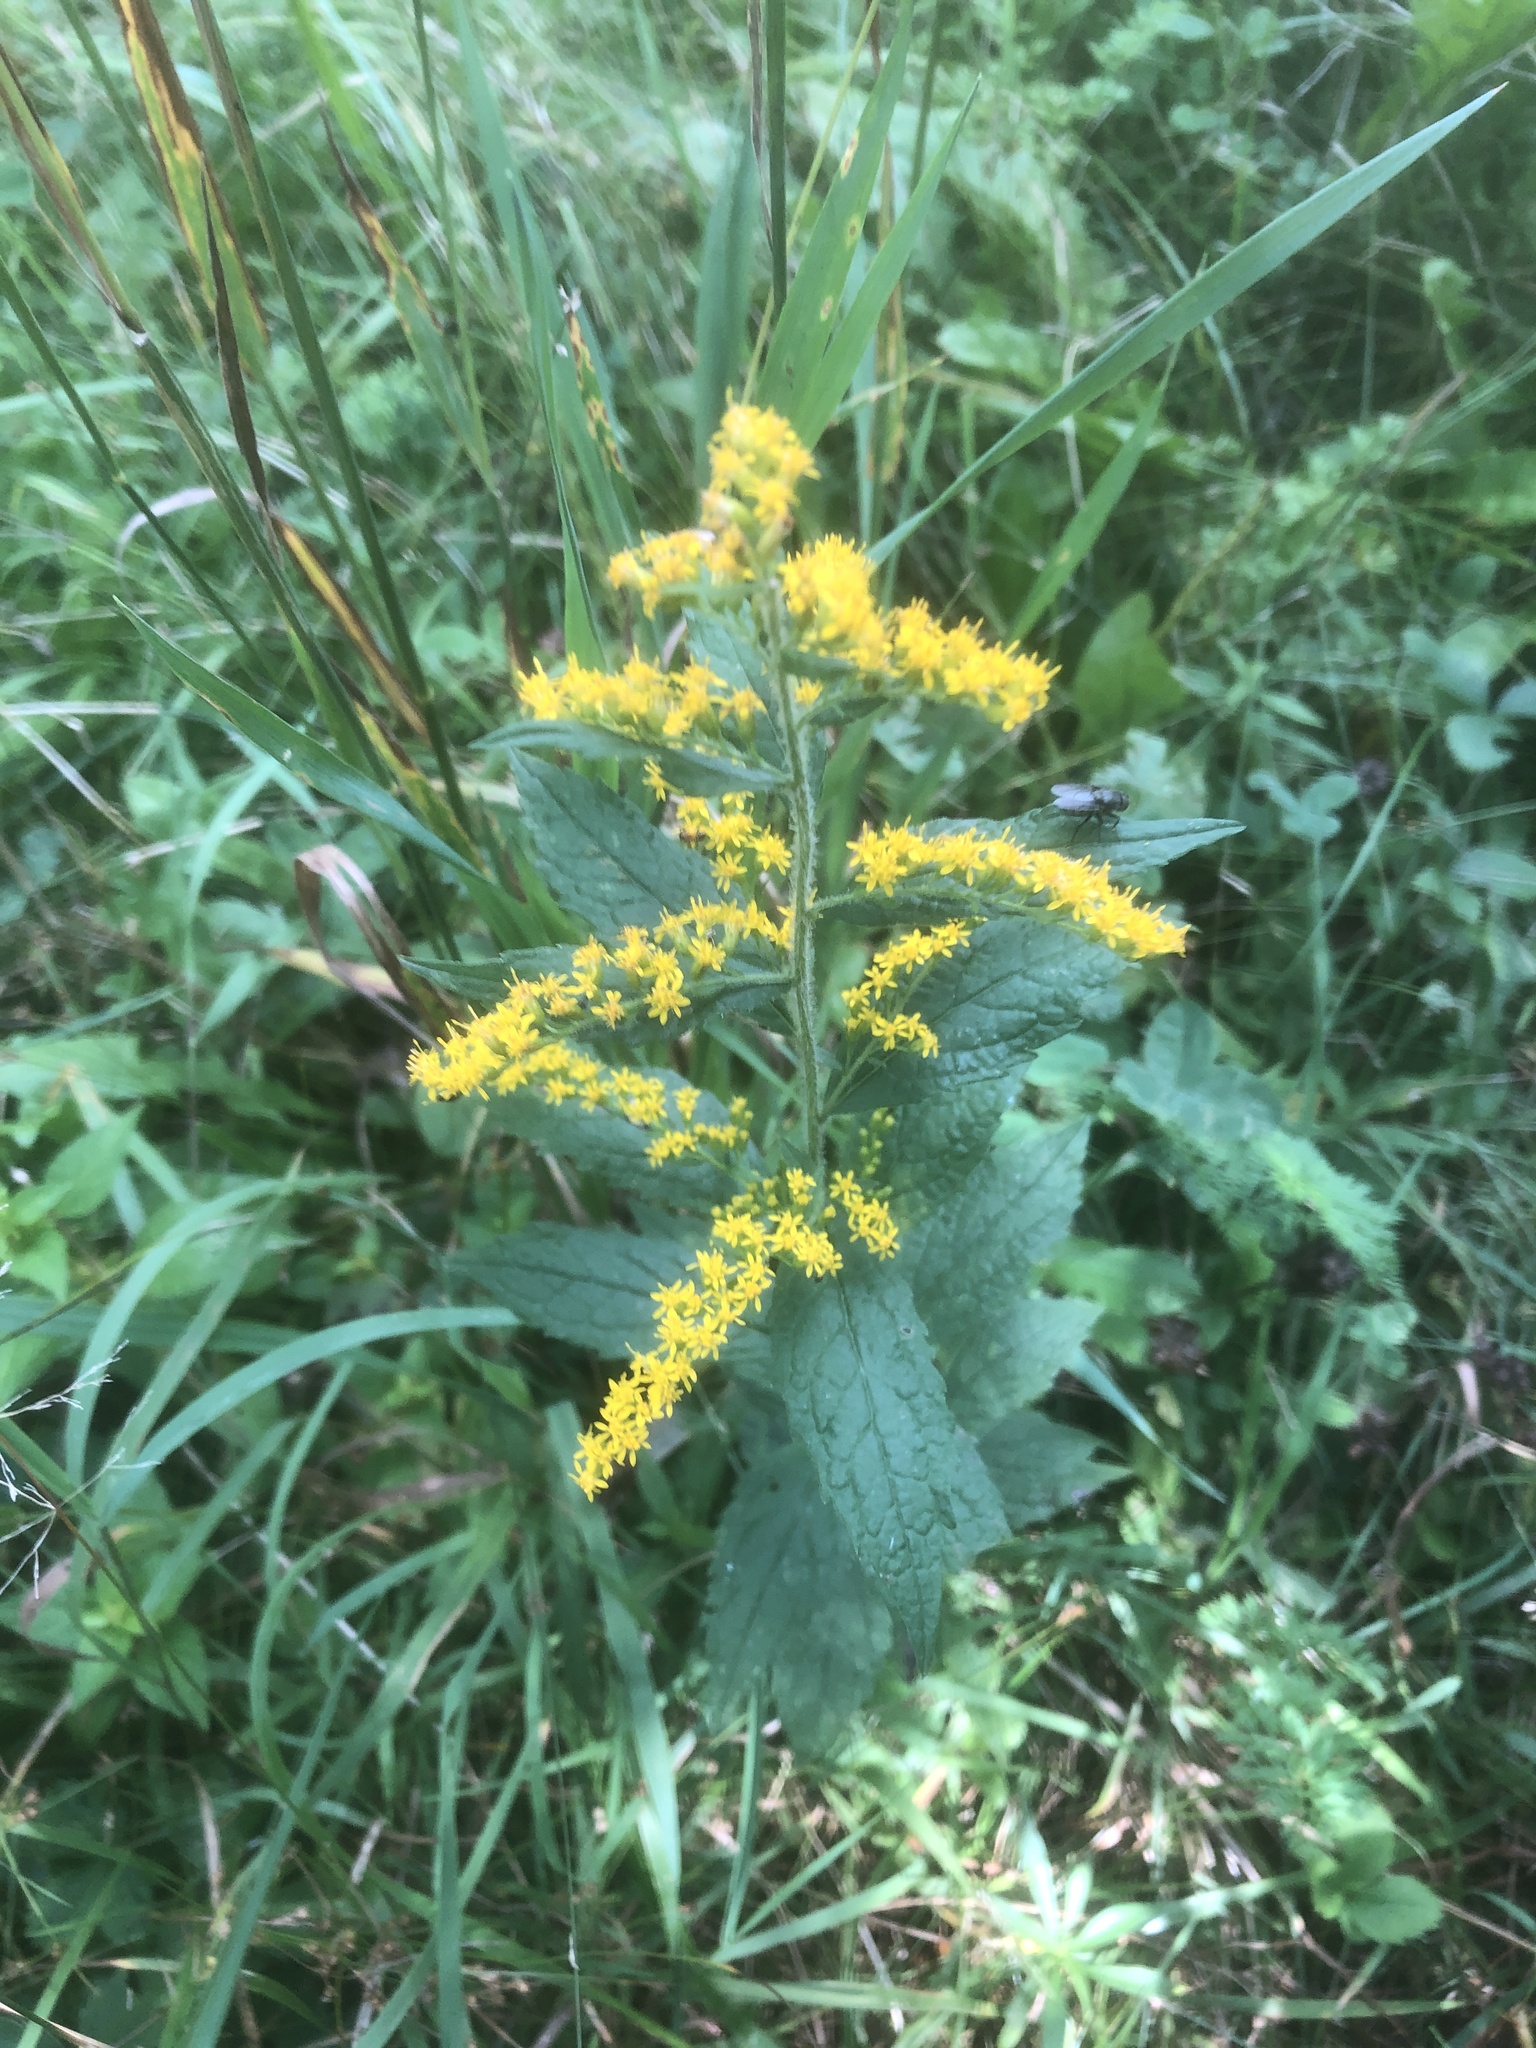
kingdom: Plantae
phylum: Tracheophyta
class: Magnoliopsida
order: Asterales
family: Asteraceae
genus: Solidago
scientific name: Solidago rugosa
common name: Rough-stemmed goldenrod
